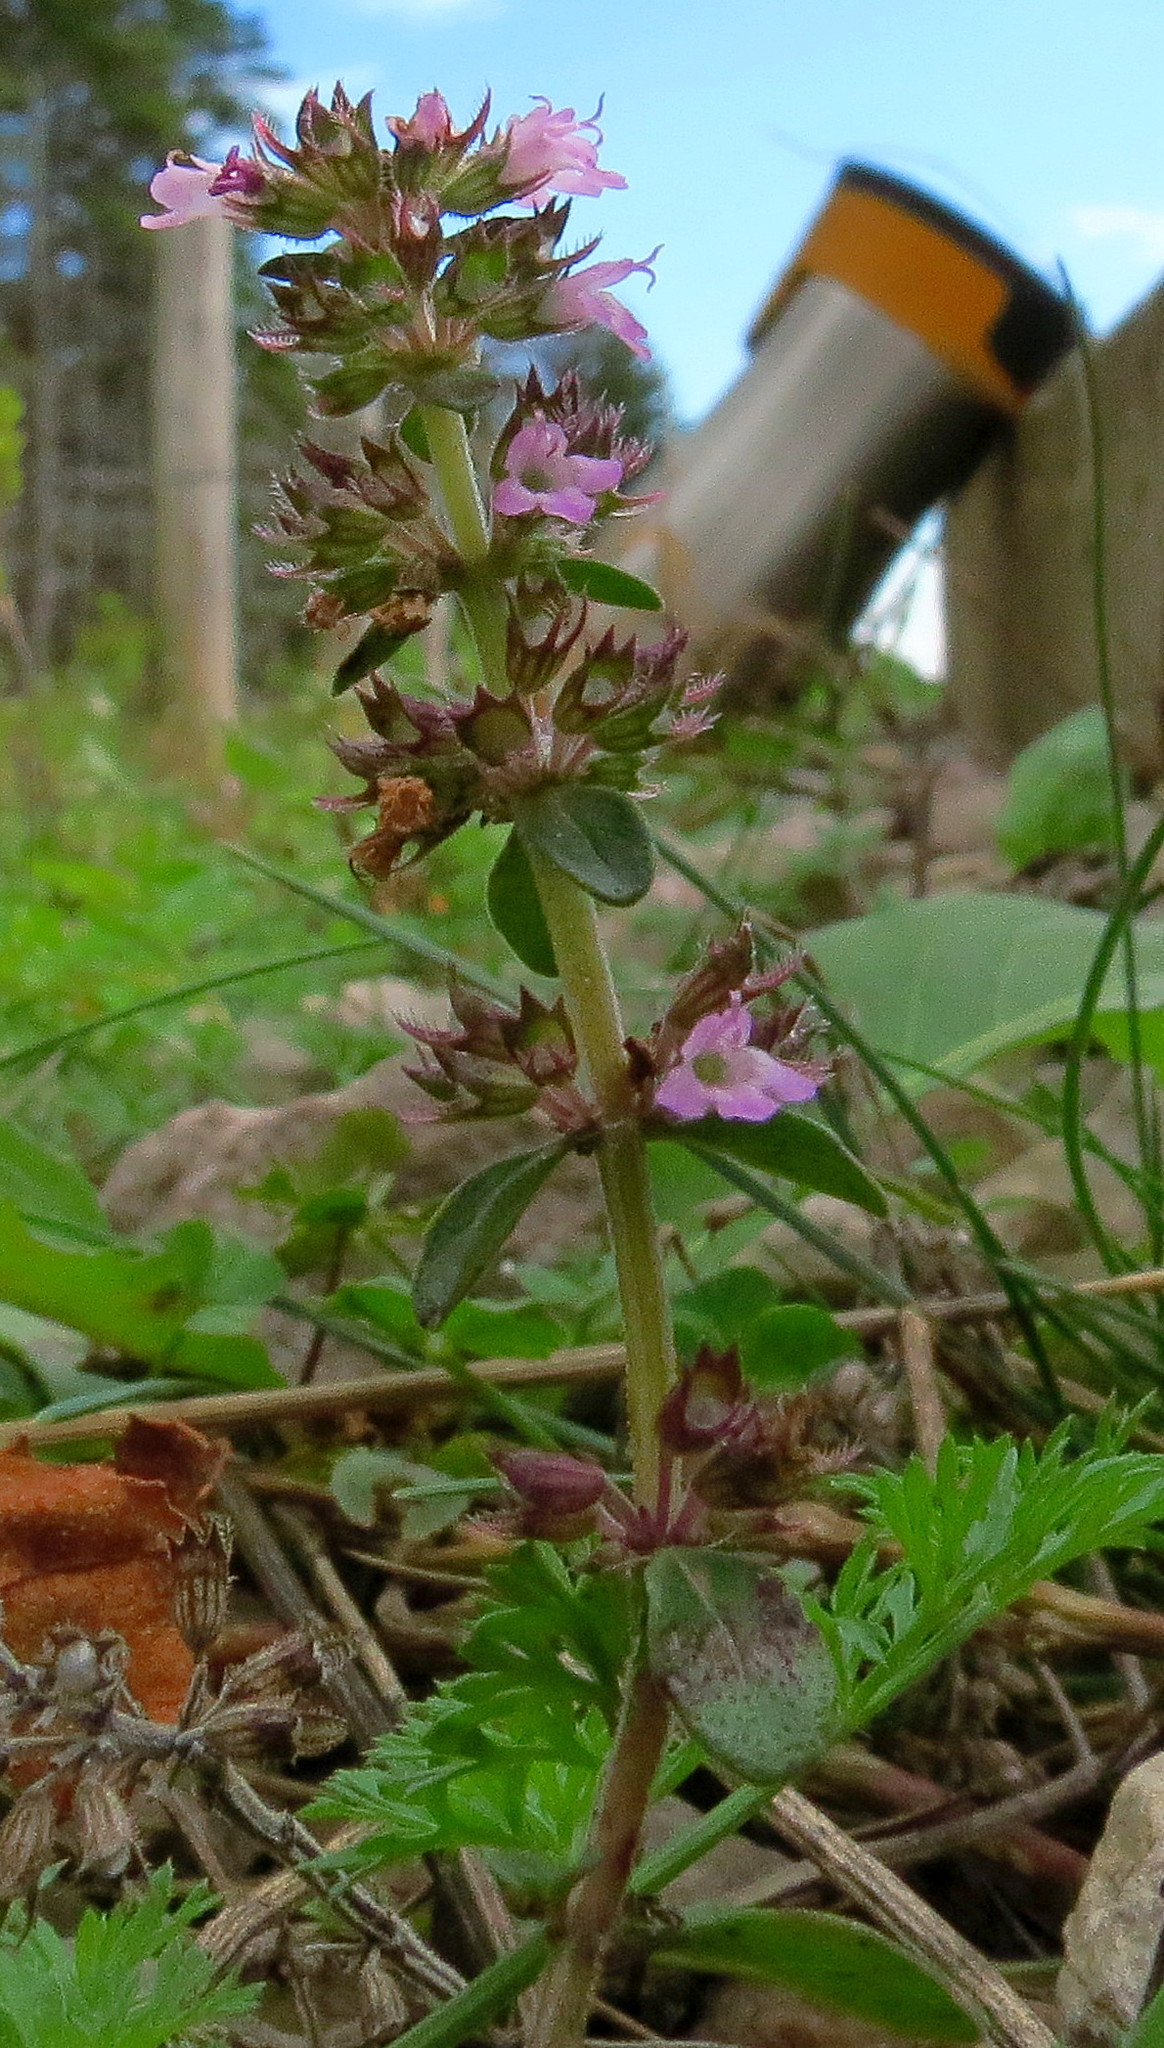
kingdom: Plantae
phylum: Tracheophyta
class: Magnoliopsida
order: Lamiales
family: Lamiaceae
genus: Thymus
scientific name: Thymus pulegioides
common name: Large thyme
